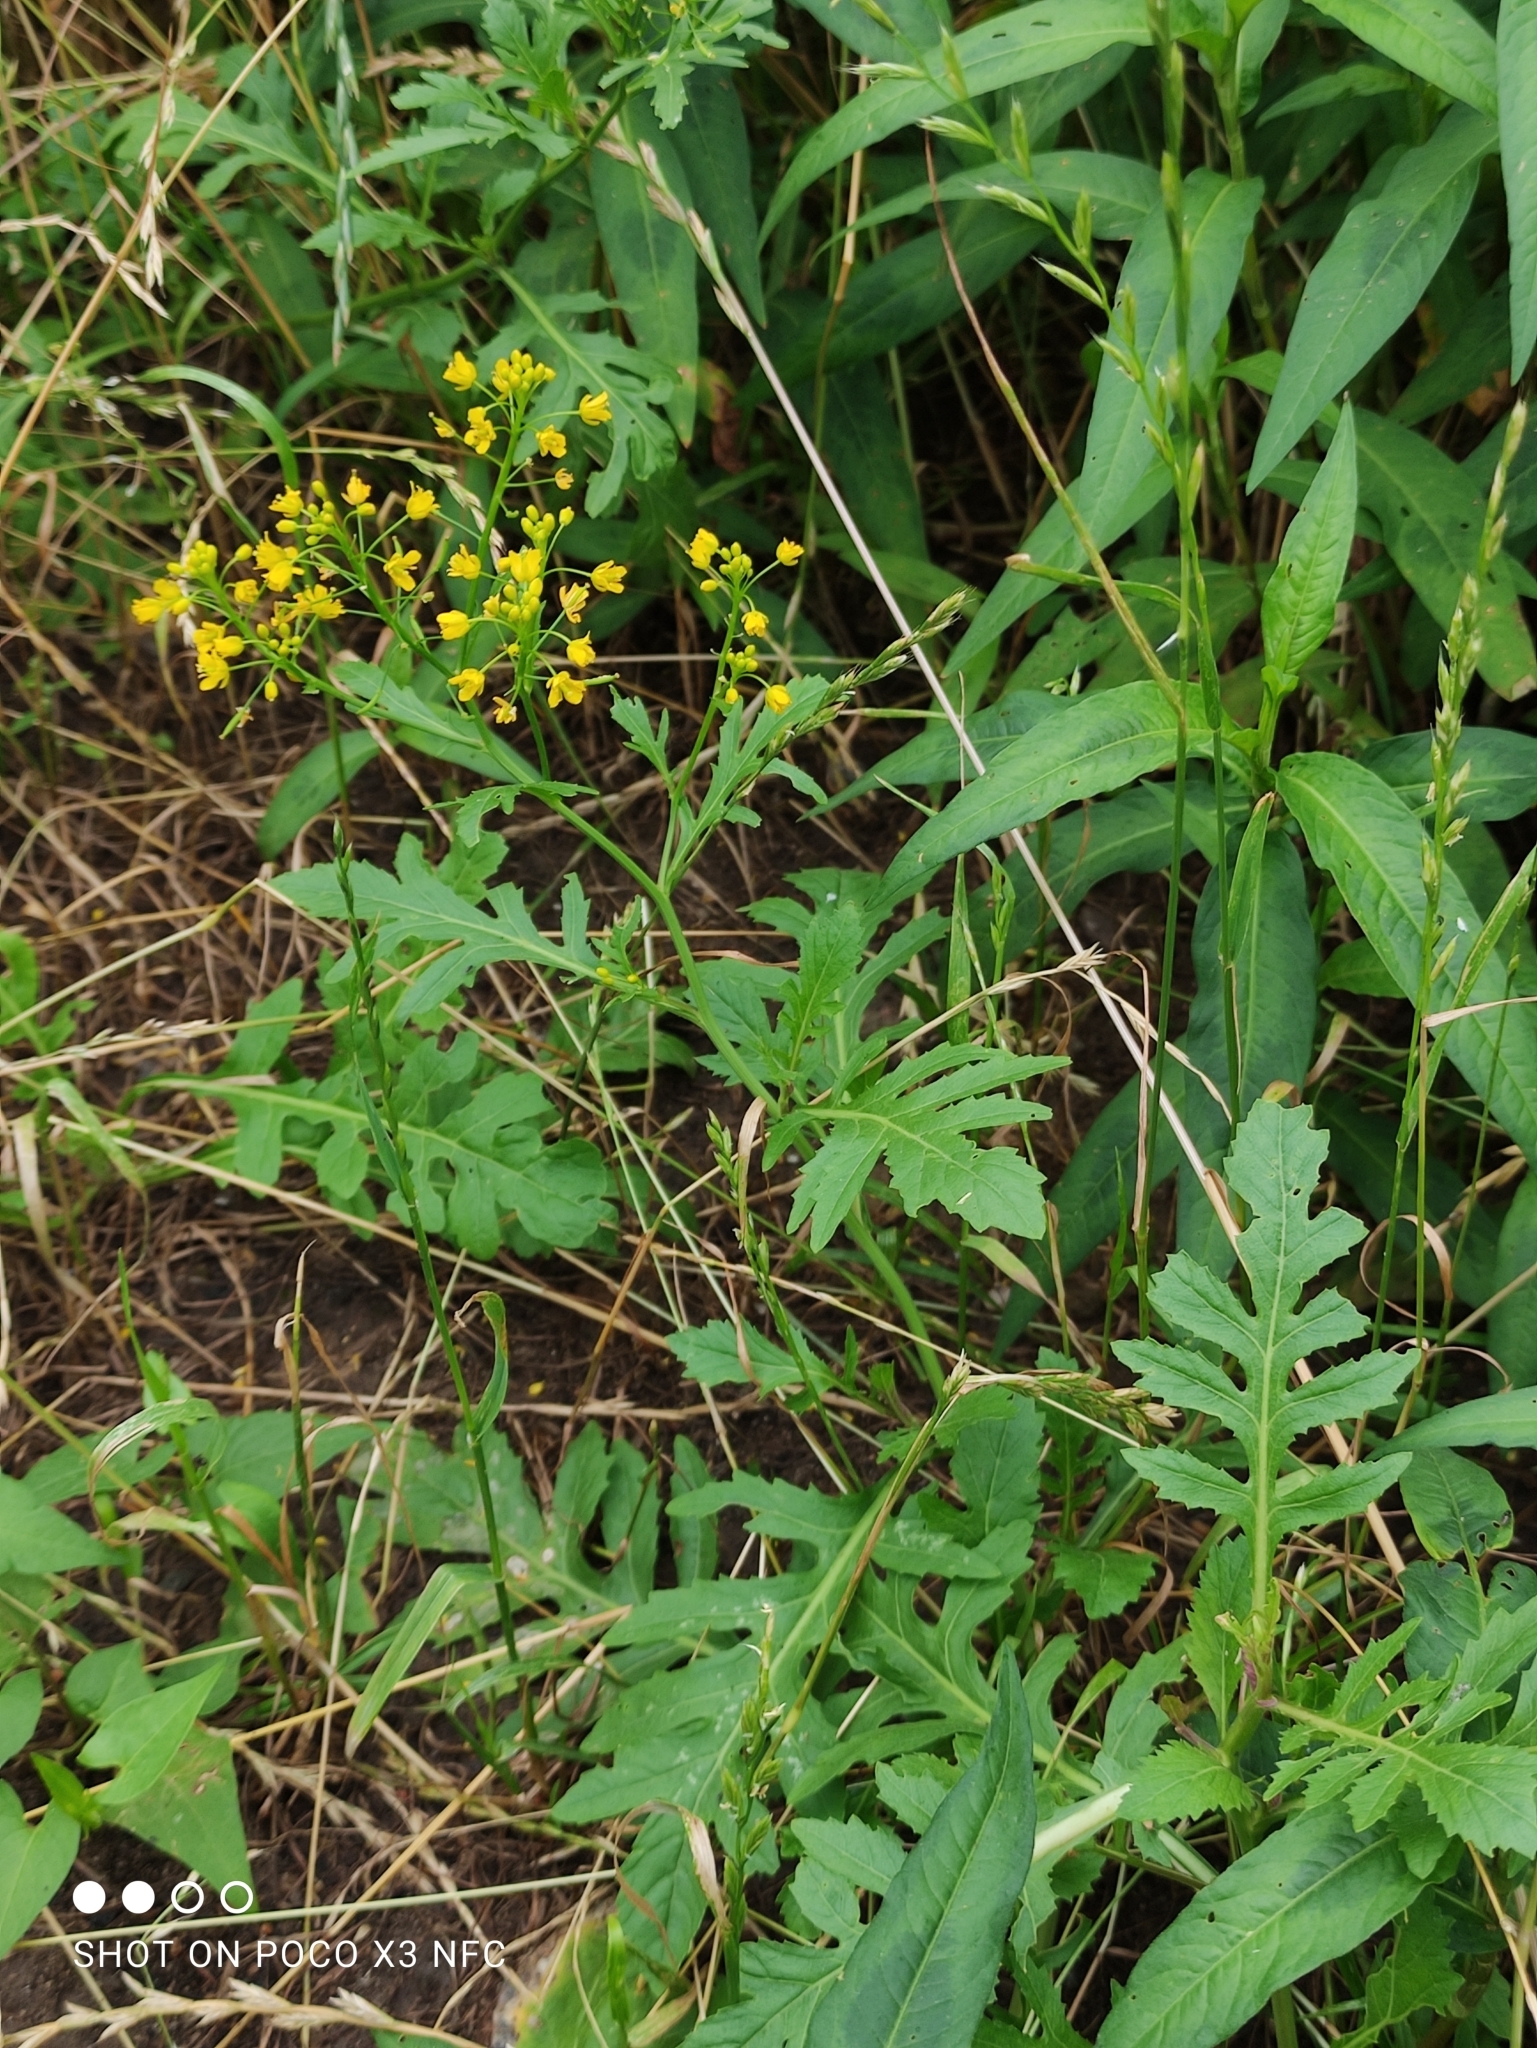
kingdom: Plantae
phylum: Tracheophyta
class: Magnoliopsida
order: Brassicales
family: Brassicaceae
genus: Rorippa
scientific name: Rorippa sylvestris
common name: Creeping yellowcress
